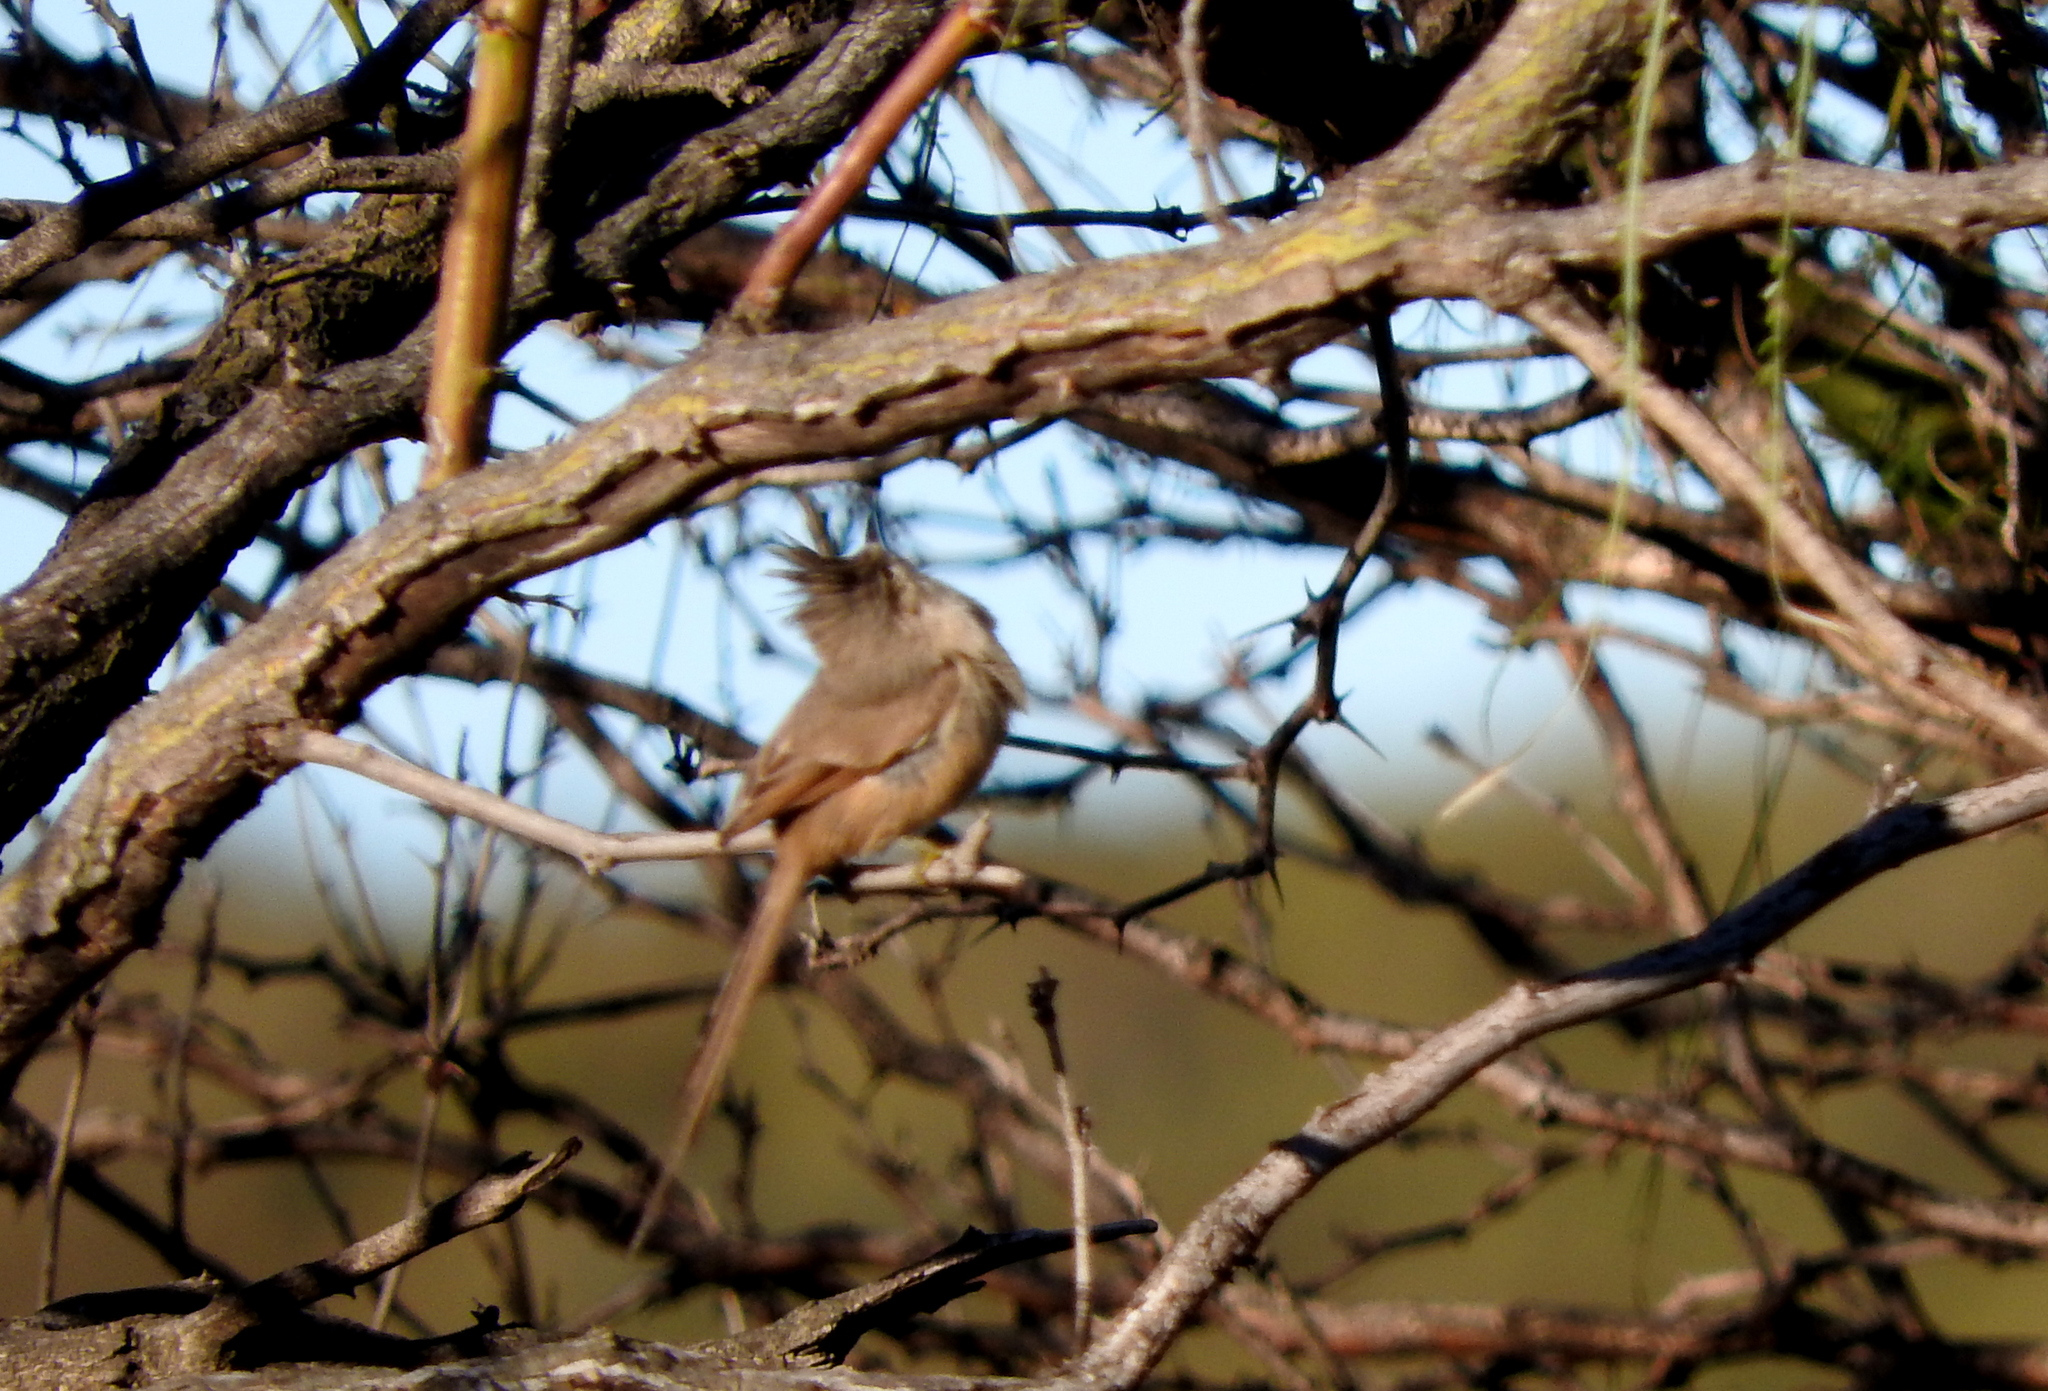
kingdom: Animalia
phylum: Chordata
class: Aves
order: Passeriformes
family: Furnariidae
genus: Leptasthenura
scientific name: Leptasthenura platensis
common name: Tufted tit-spinetail
